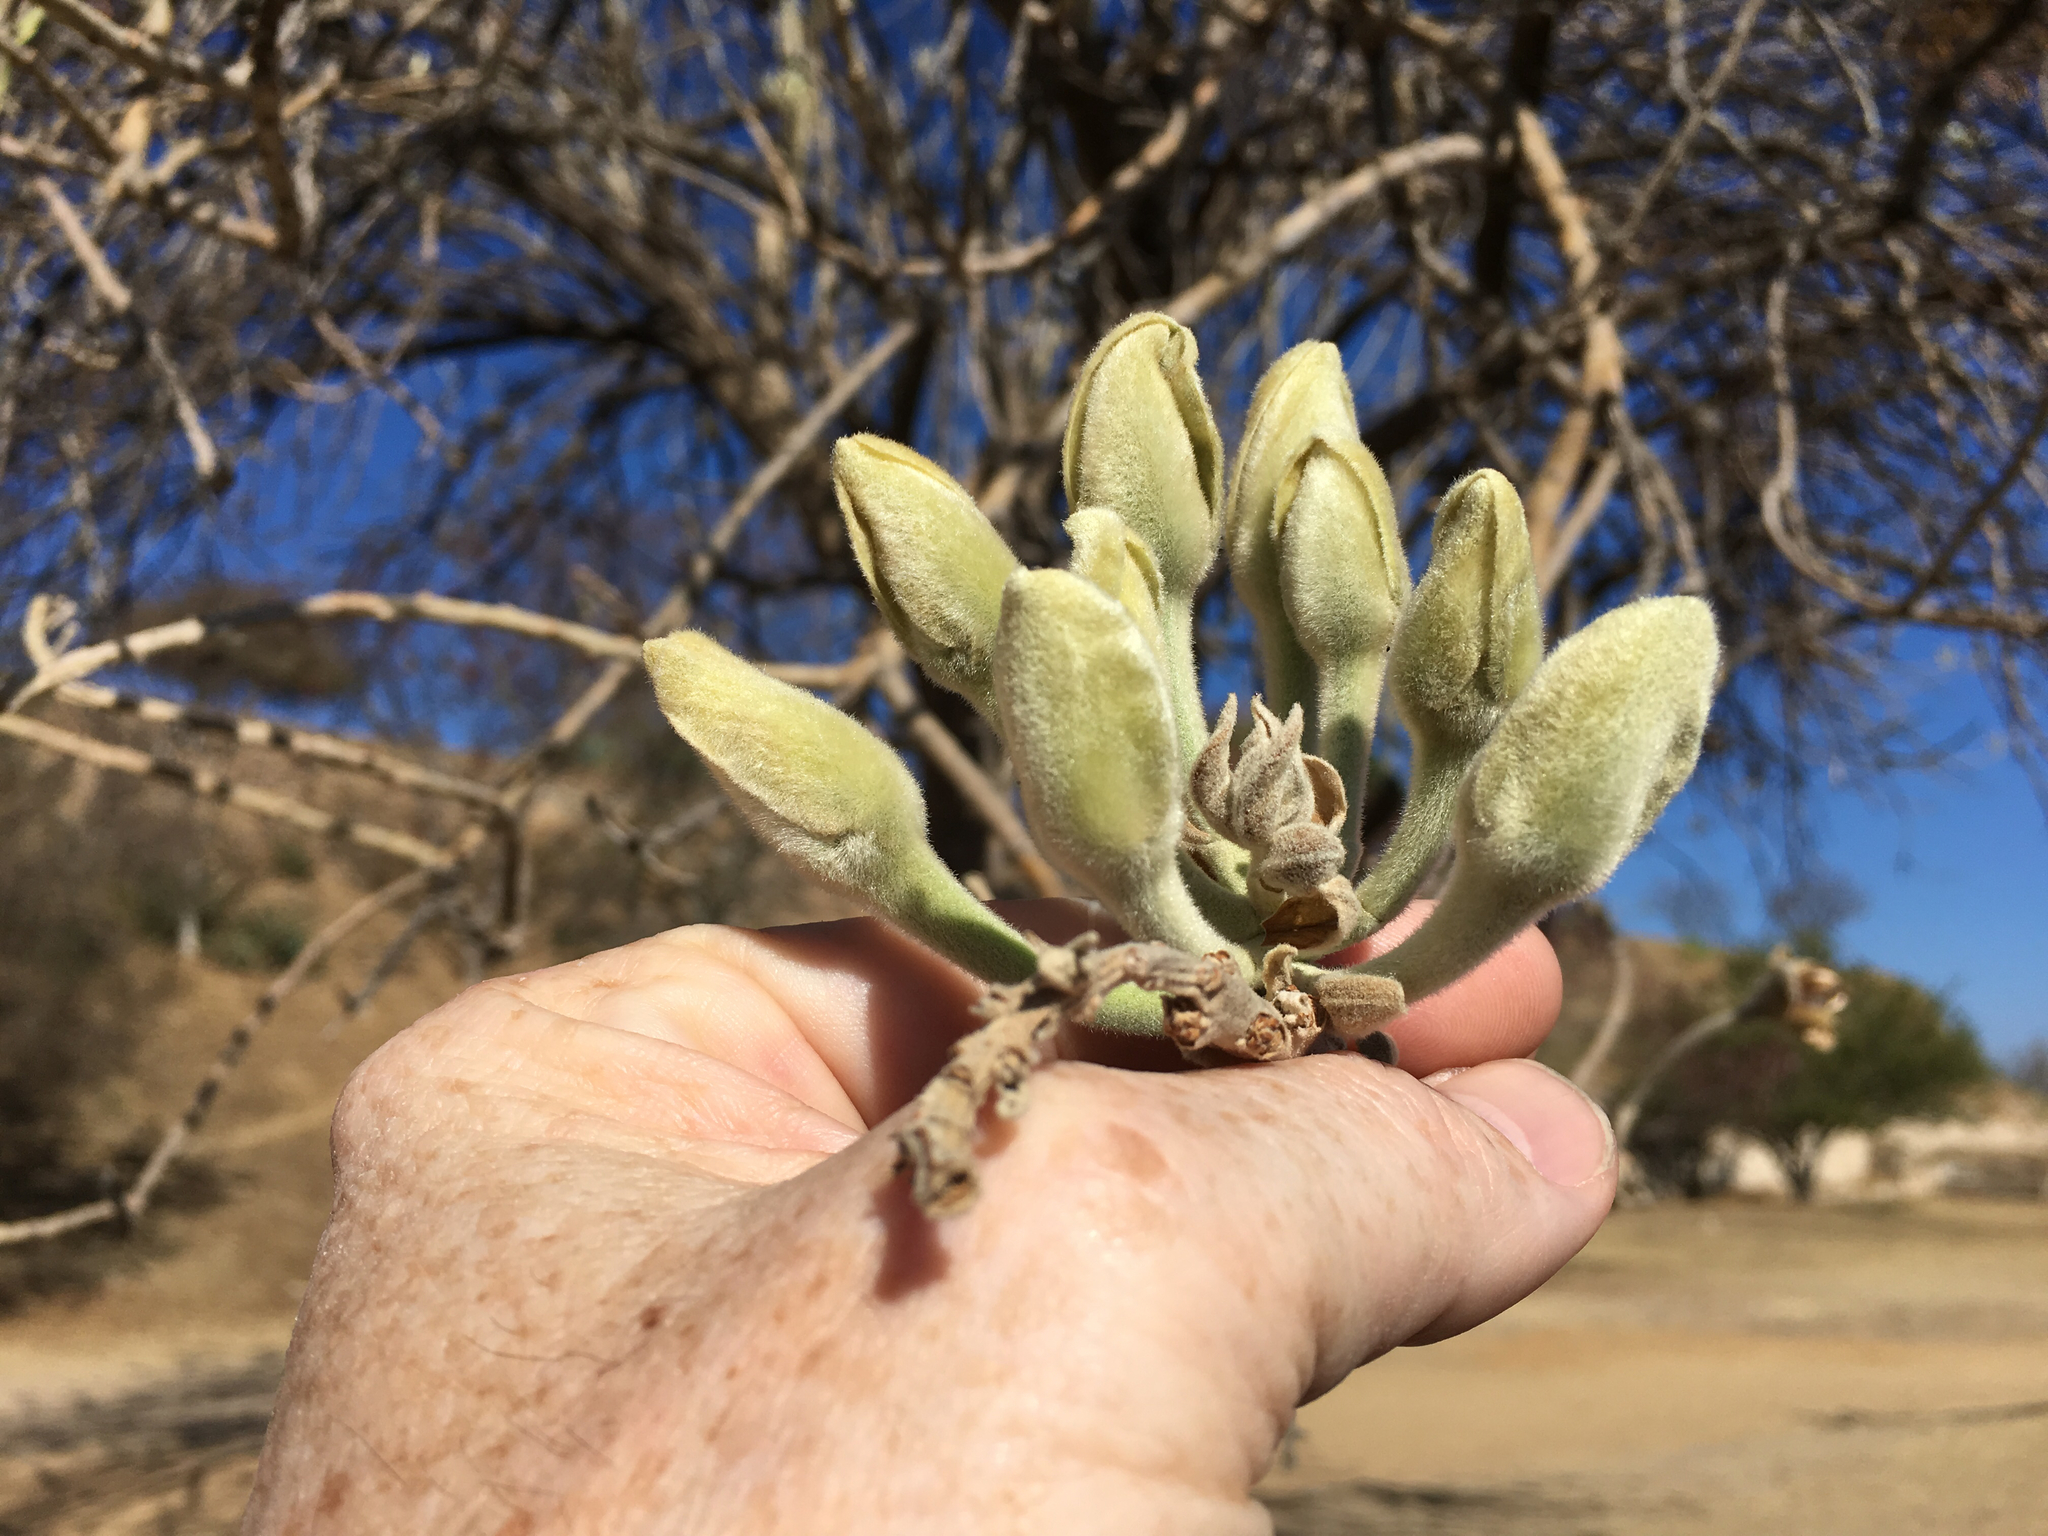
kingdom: Plantae
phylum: Tracheophyta
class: Magnoliopsida
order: Solanales
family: Convolvulaceae
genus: Ipomoea
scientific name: Ipomoea murucoides
